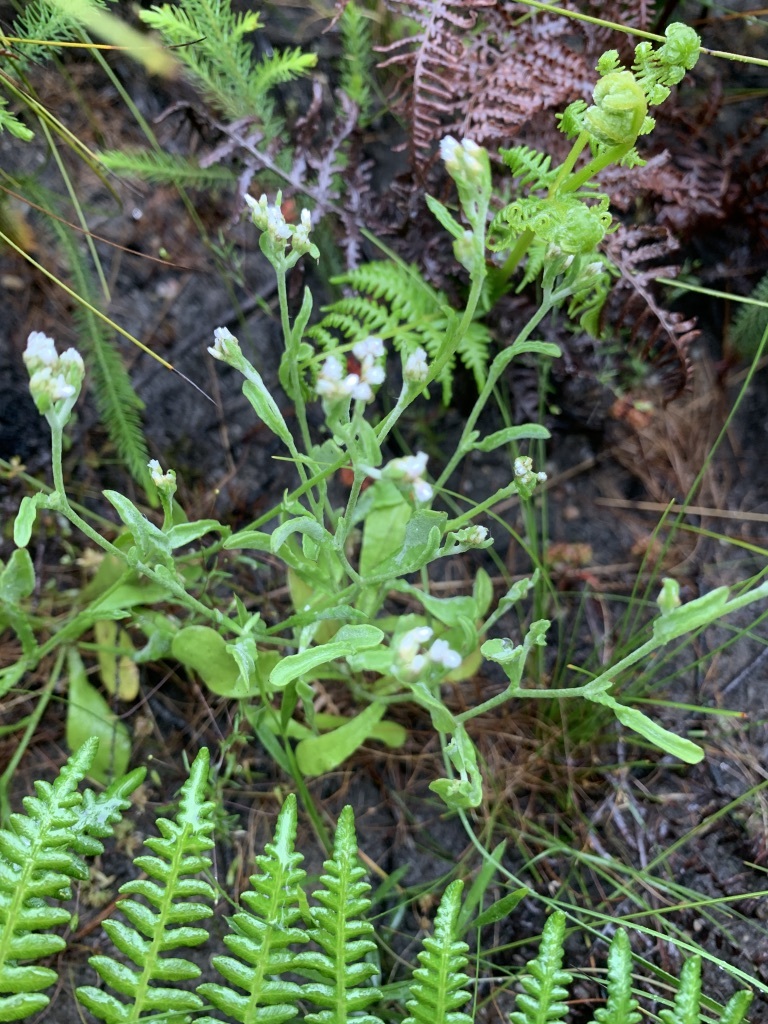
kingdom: Plantae
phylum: Tracheophyta
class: Magnoliopsida
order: Asterales
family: Asteraceae
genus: Helichrysum
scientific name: Helichrysum luteoalbum
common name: Daisy
